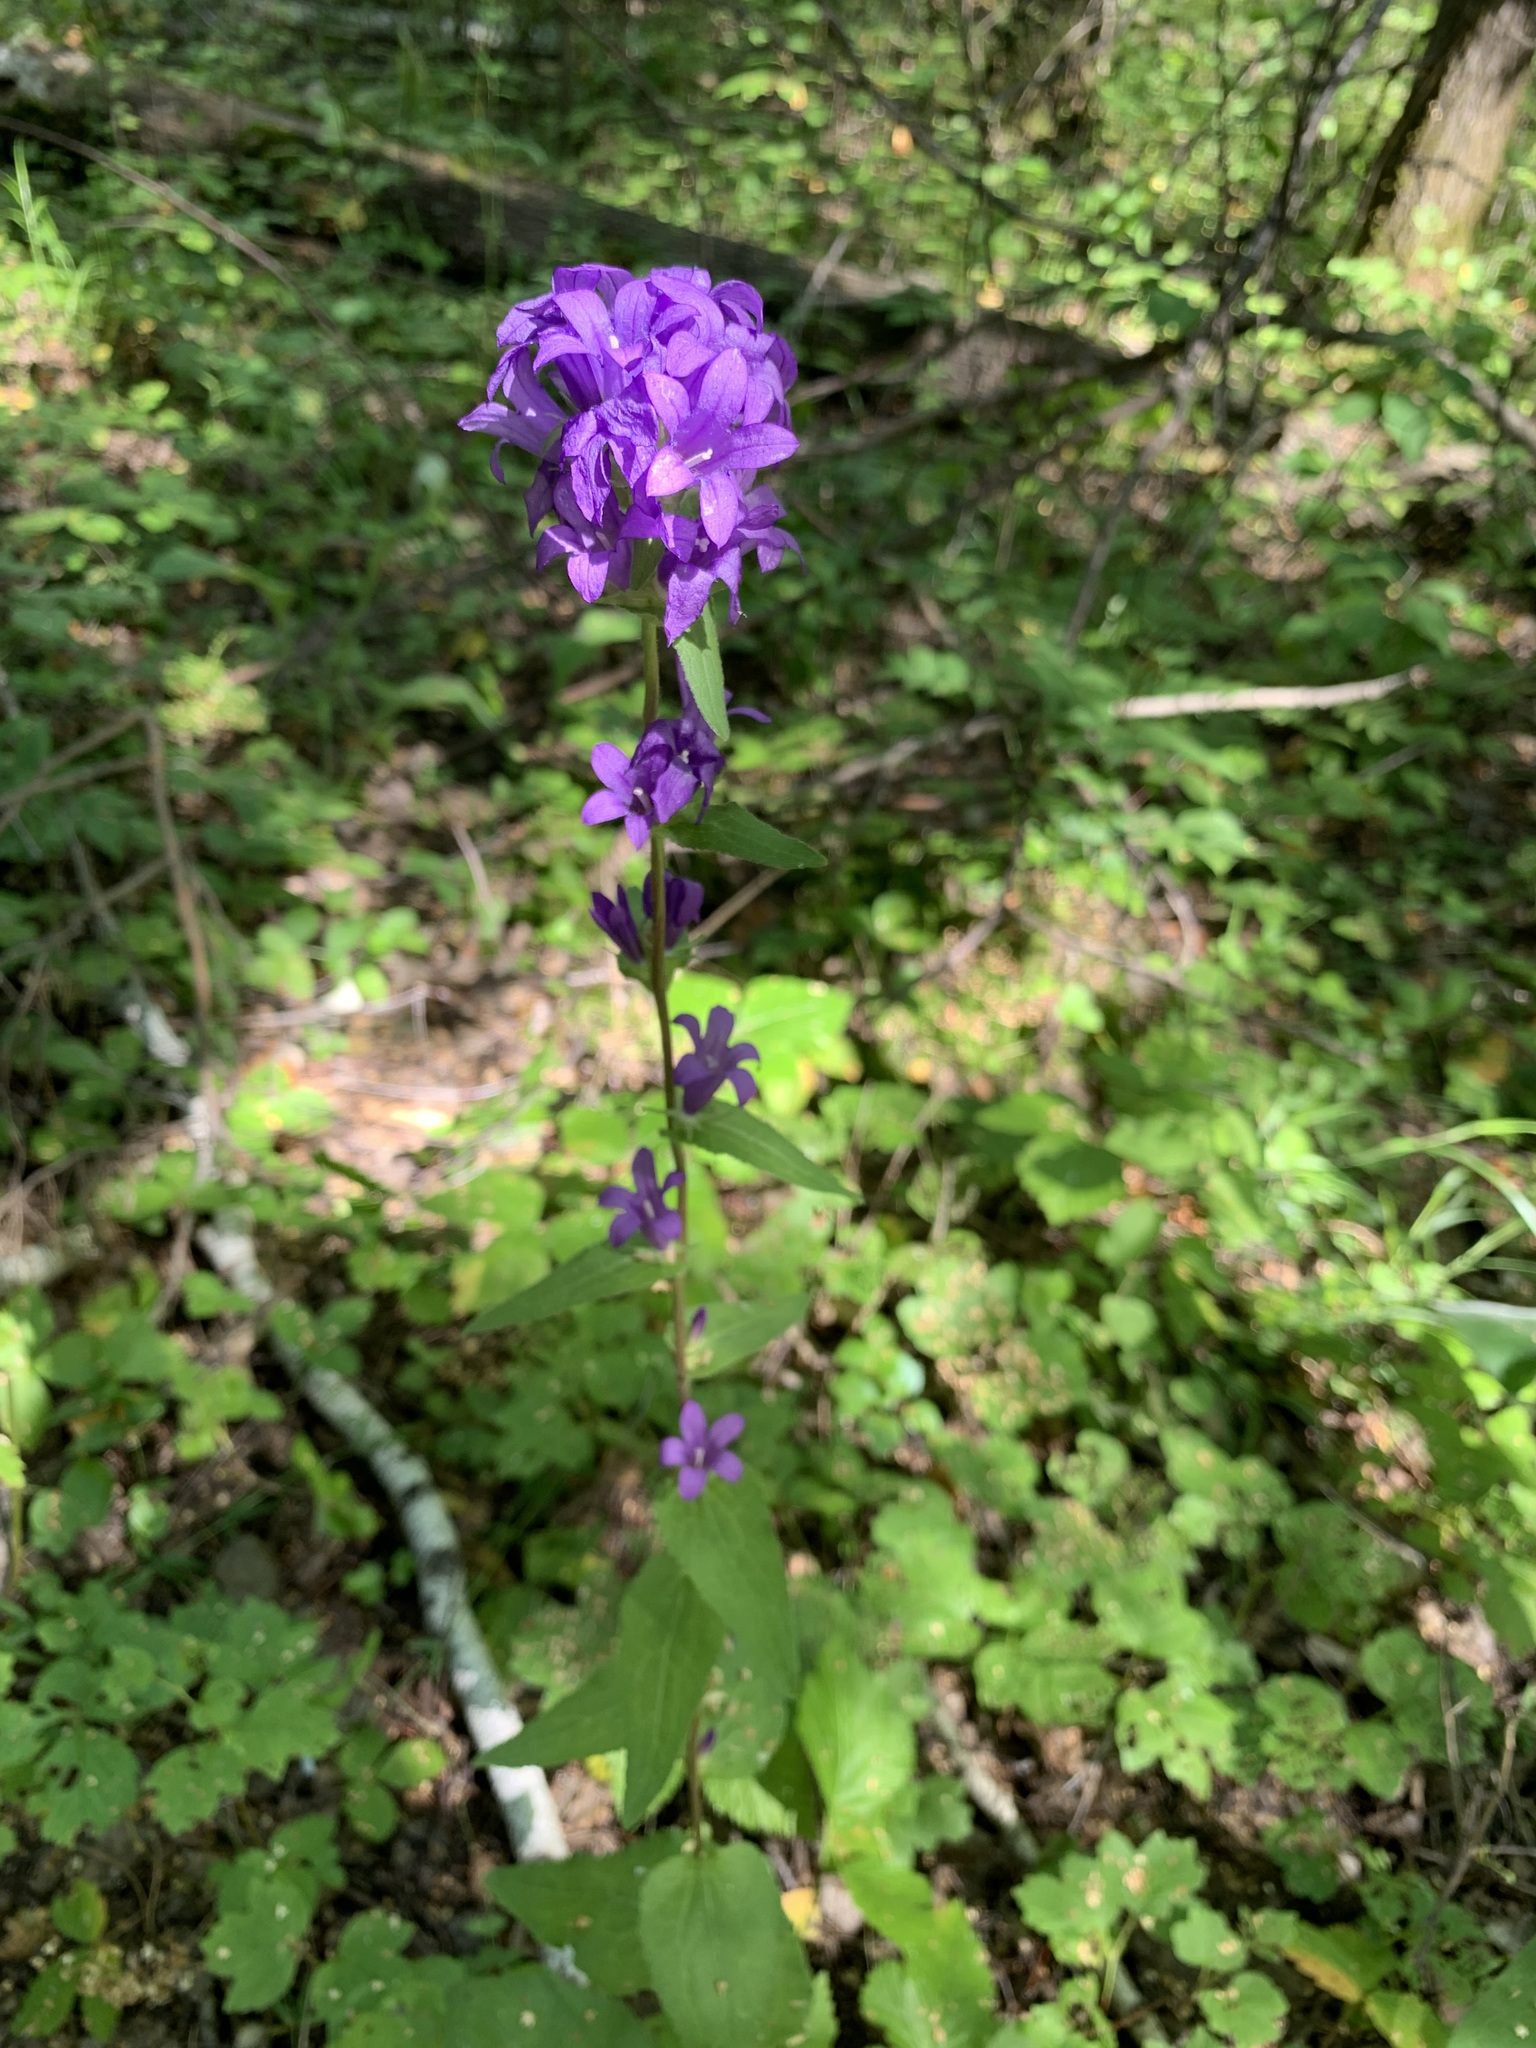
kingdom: Plantae
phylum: Tracheophyta
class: Magnoliopsida
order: Asterales
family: Campanulaceae
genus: Campanula
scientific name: Campanula glomerata
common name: Clustered bellflower
